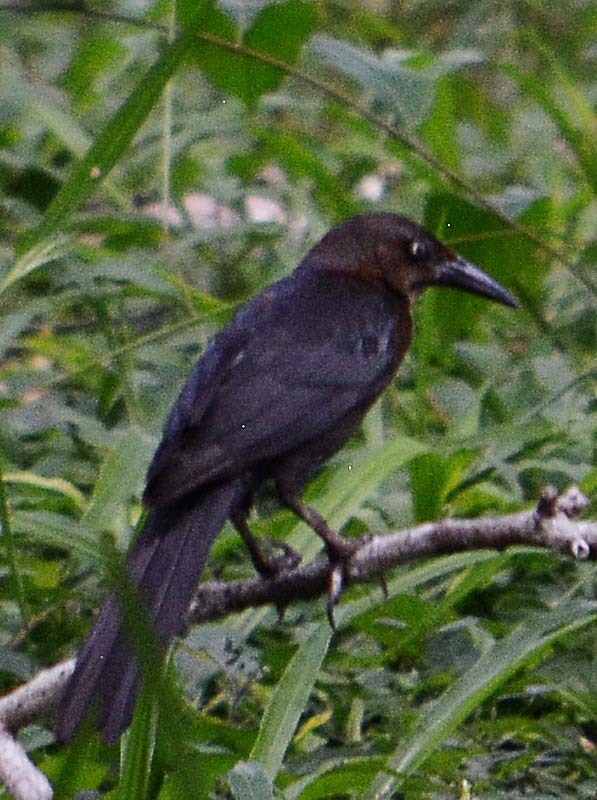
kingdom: Animalia
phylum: Chordata
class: Aves
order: Passeriformes
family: Icteridae
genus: Quiscalus
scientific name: Quiscalus mexicanus
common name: Great-tailed grackle
